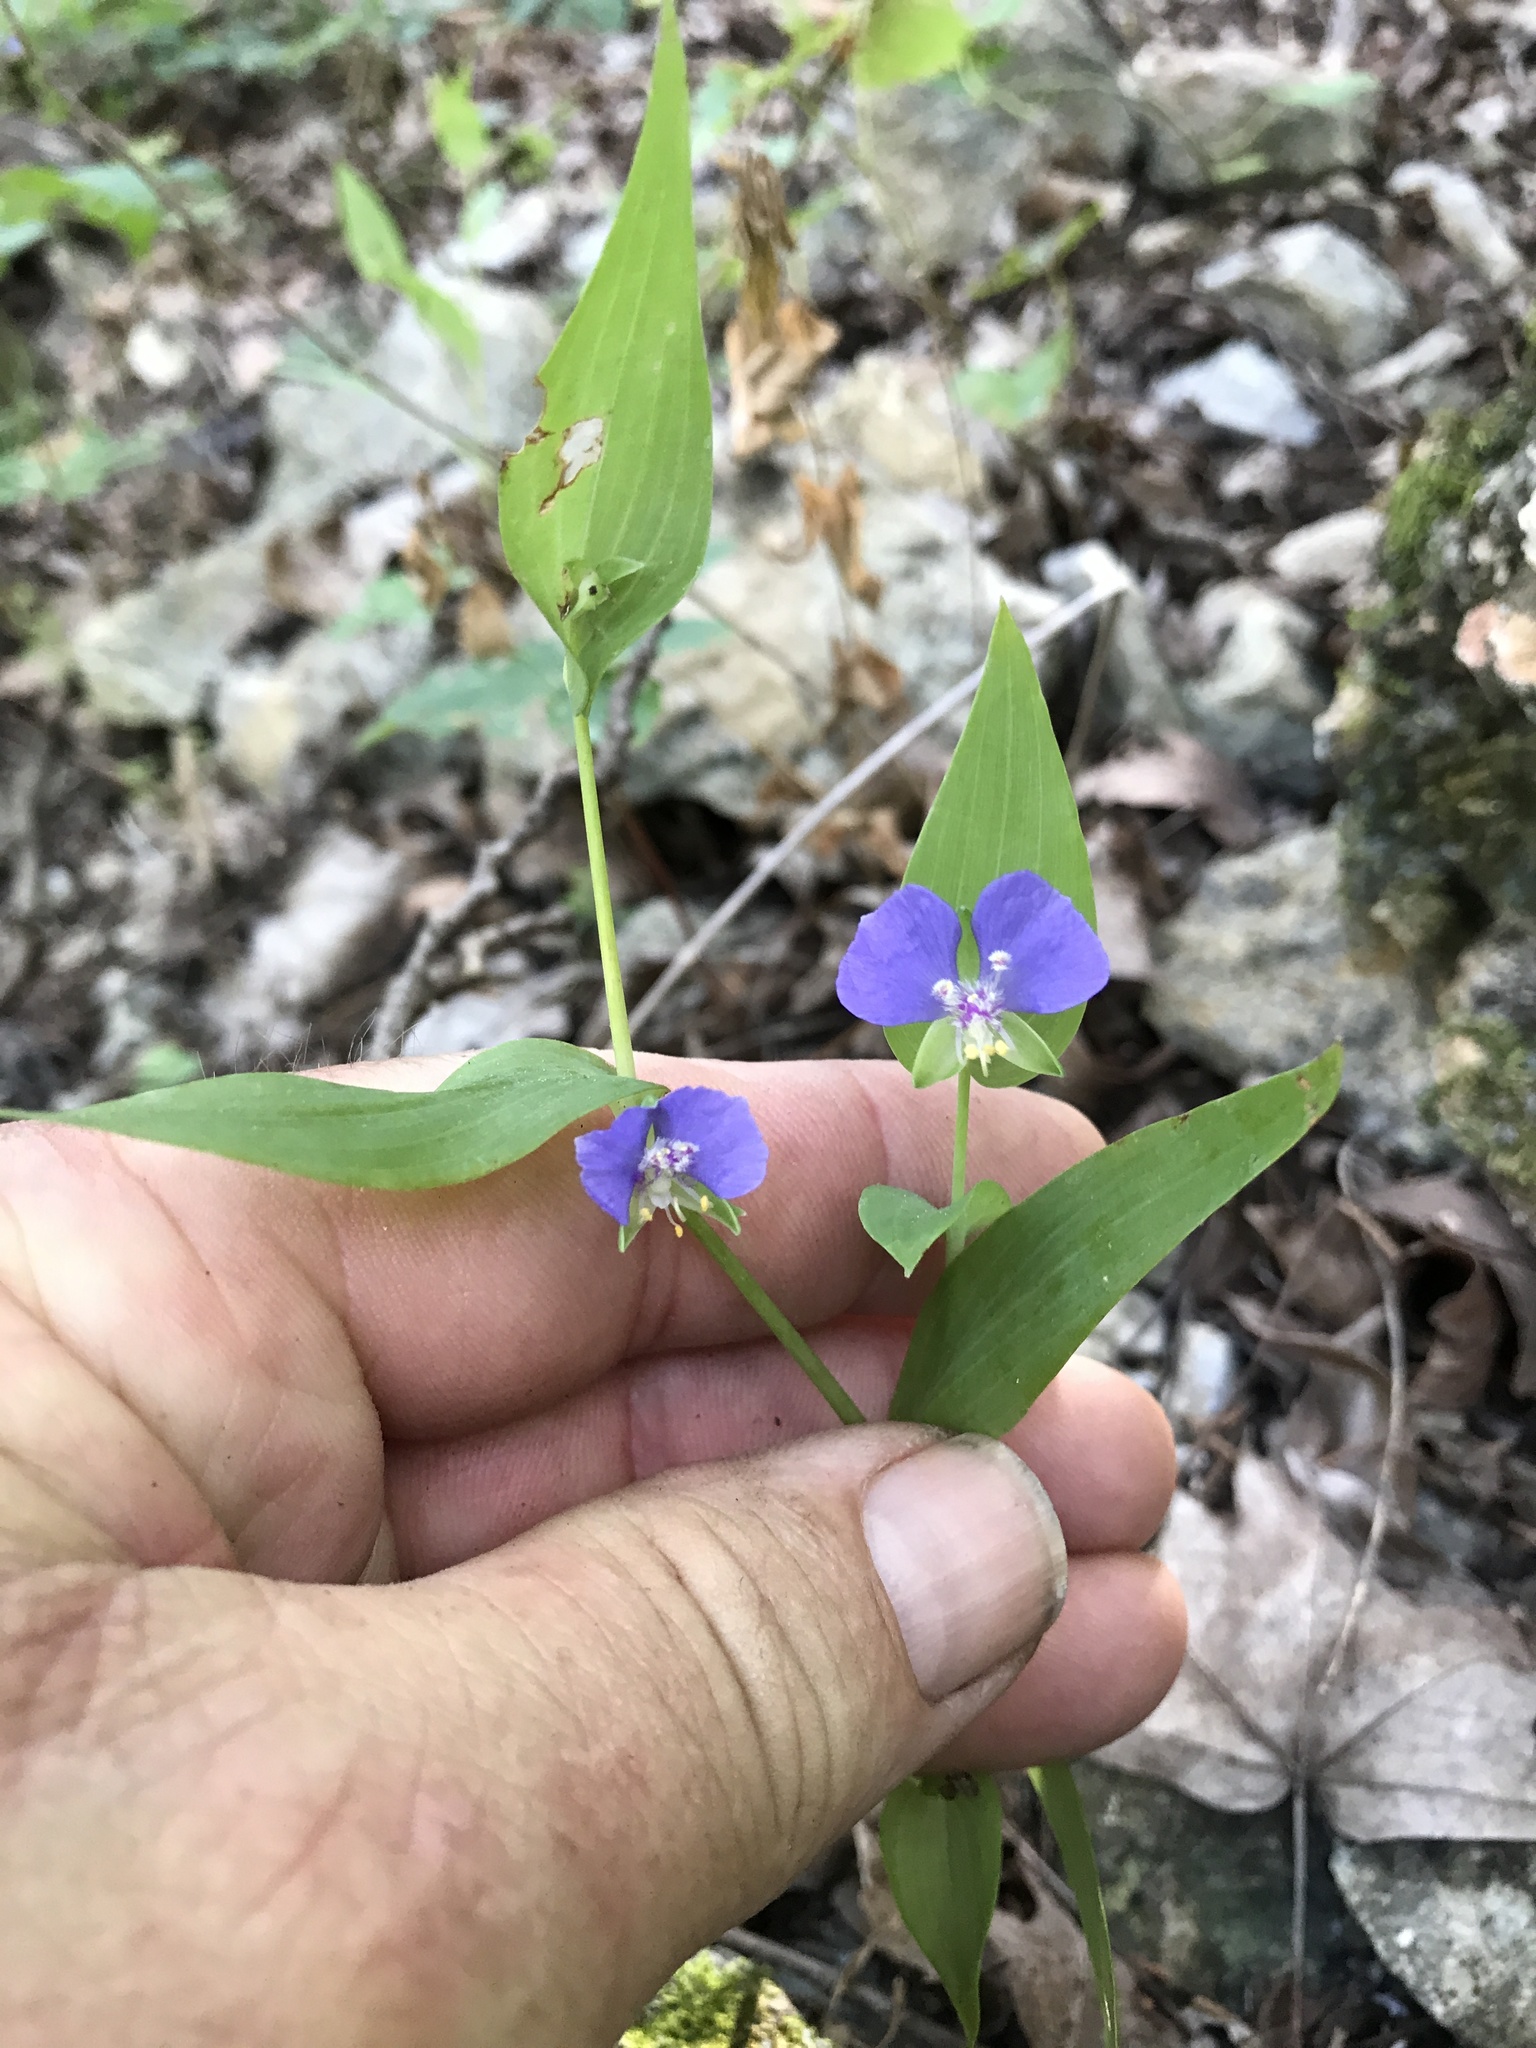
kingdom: Plantae
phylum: Tracheophyta
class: Liliopsida
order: Commelinales
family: Commelinaceae
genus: Tinantia
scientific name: Tinantia anomala
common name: False dayflower
